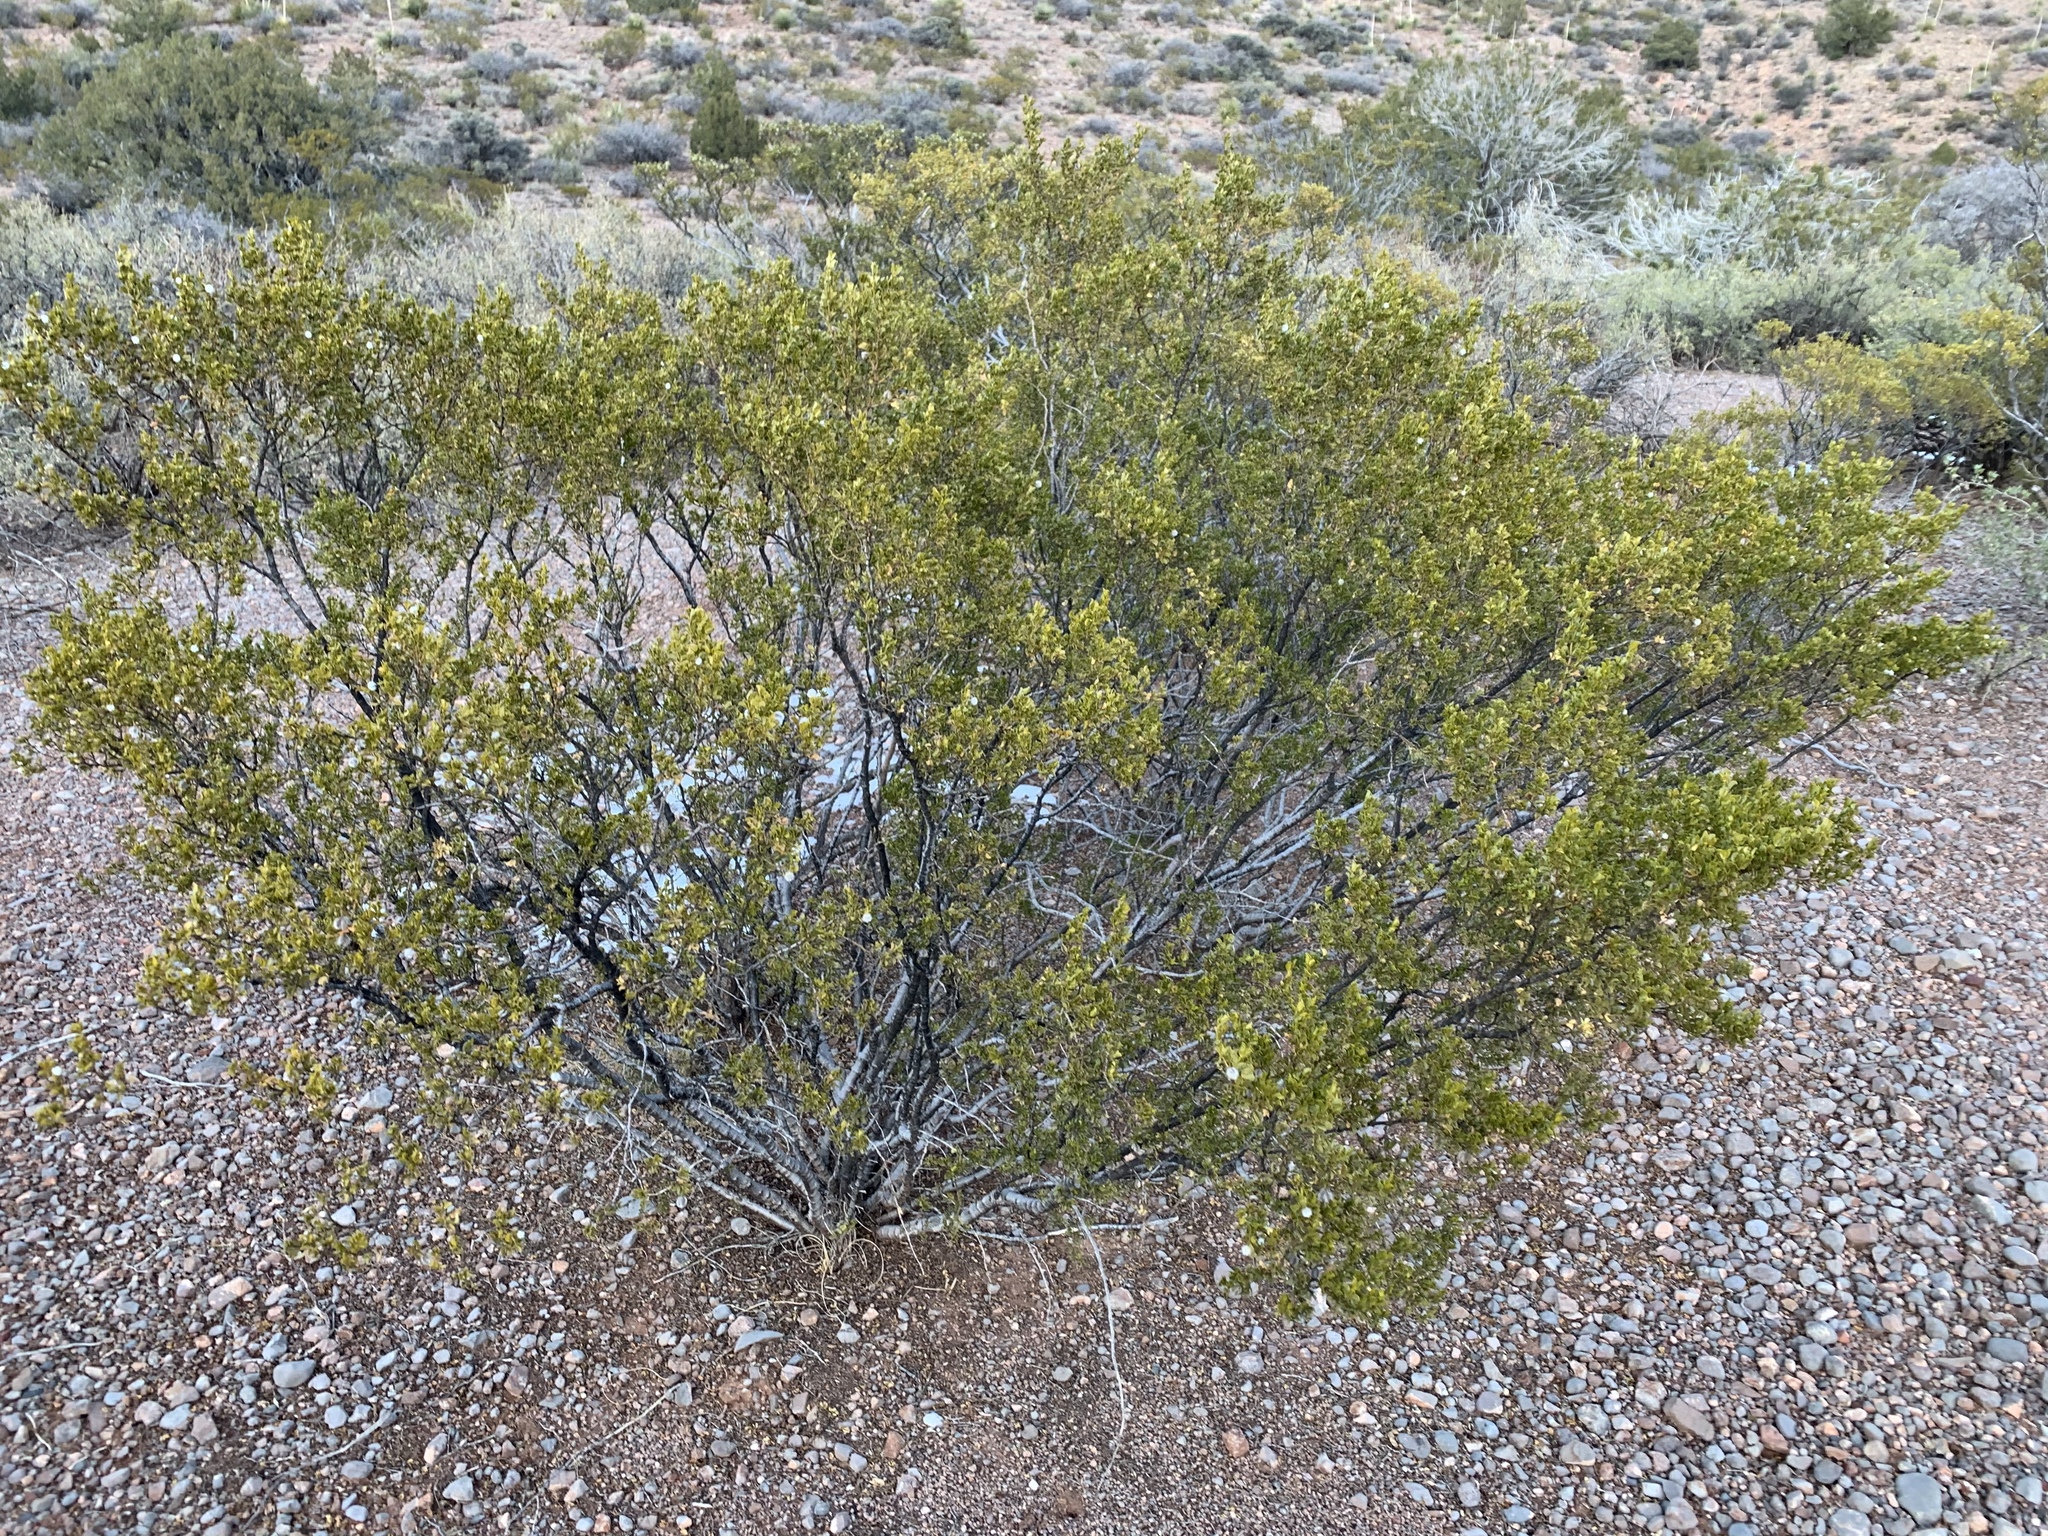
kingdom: Plantae
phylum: Tracheophyta
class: Magnoliopsida
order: Zygophyllales
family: Zygophyllaceae
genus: Larrea
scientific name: Larrea tridentata
